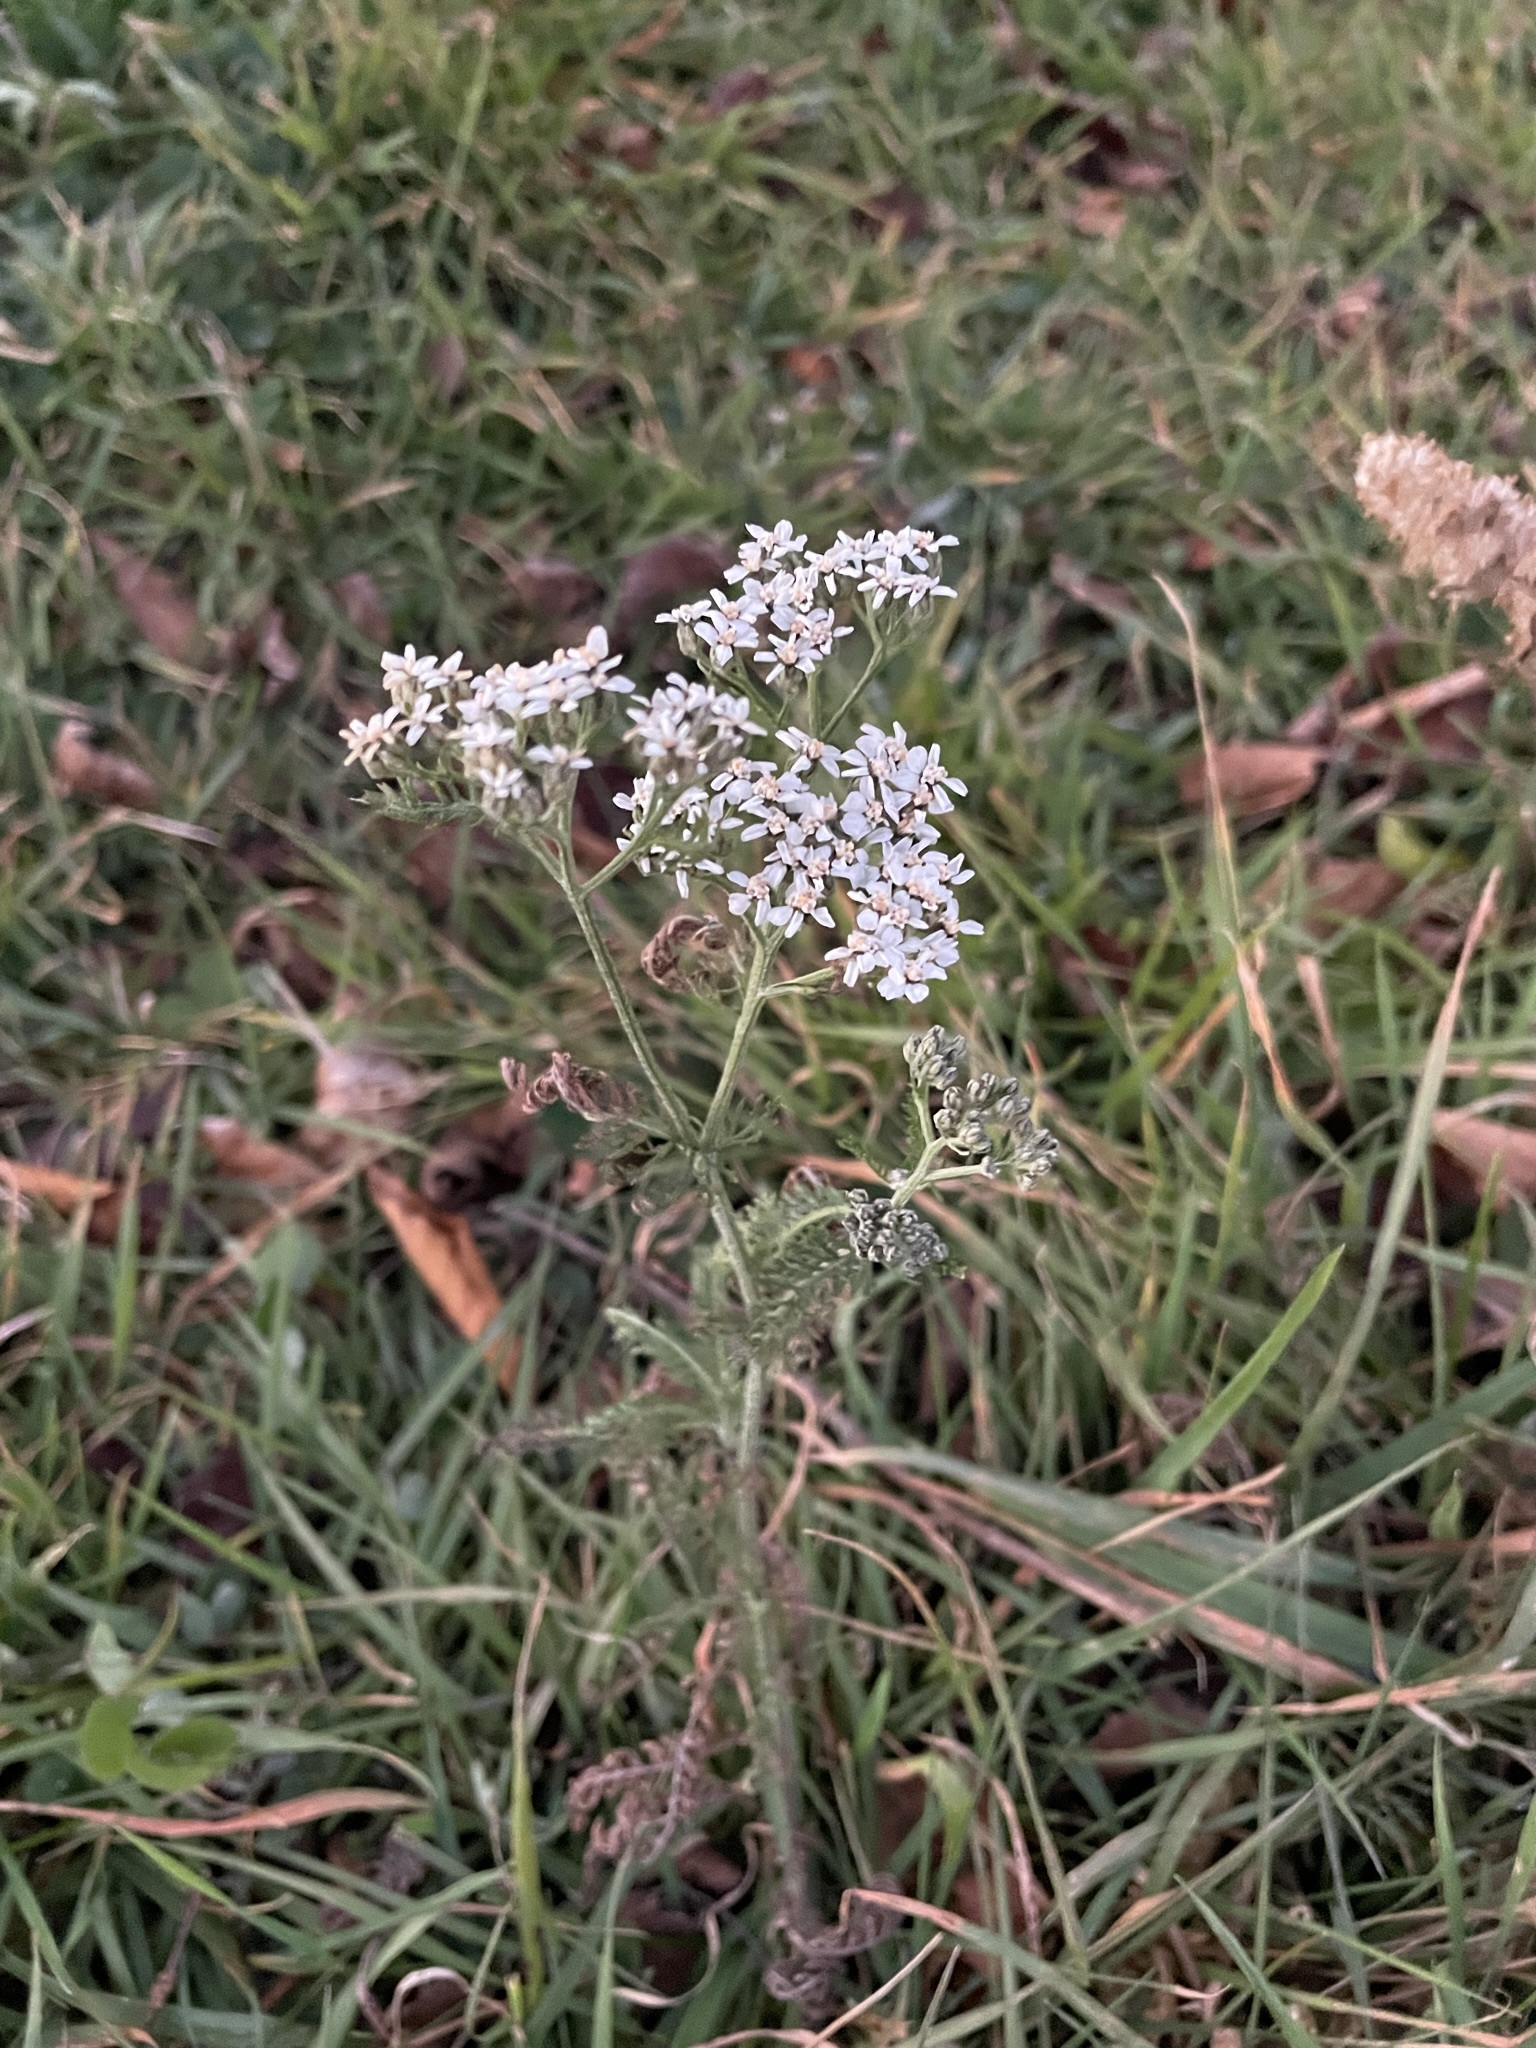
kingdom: Plantae
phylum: Tracheophyta
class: Magnoliopsida
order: Asterales
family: Asteraceae
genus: Achillea
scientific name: Achillea millefolium
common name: Yarrow
